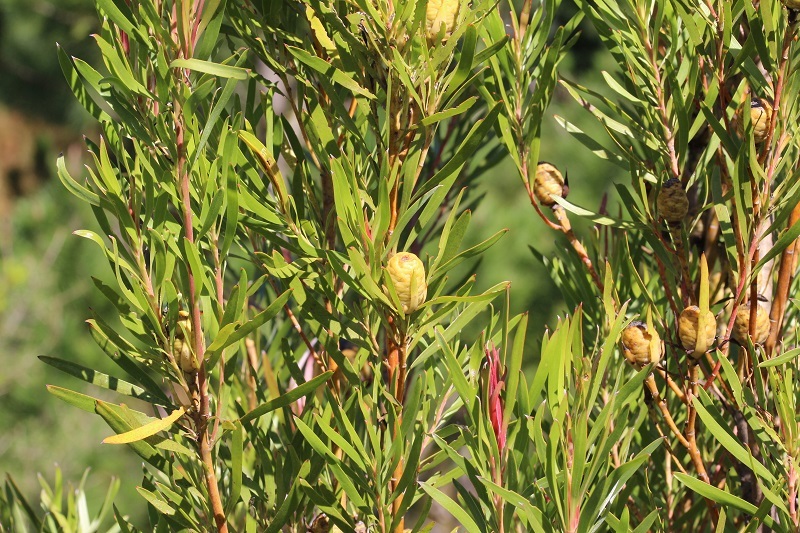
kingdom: Plantae
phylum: Tracheophyta
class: Magnoliopsida
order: Proteales
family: Proteaceae
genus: Leucadendron
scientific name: Leucadendron eucalyptifolium
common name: Gum-leaved conebush
